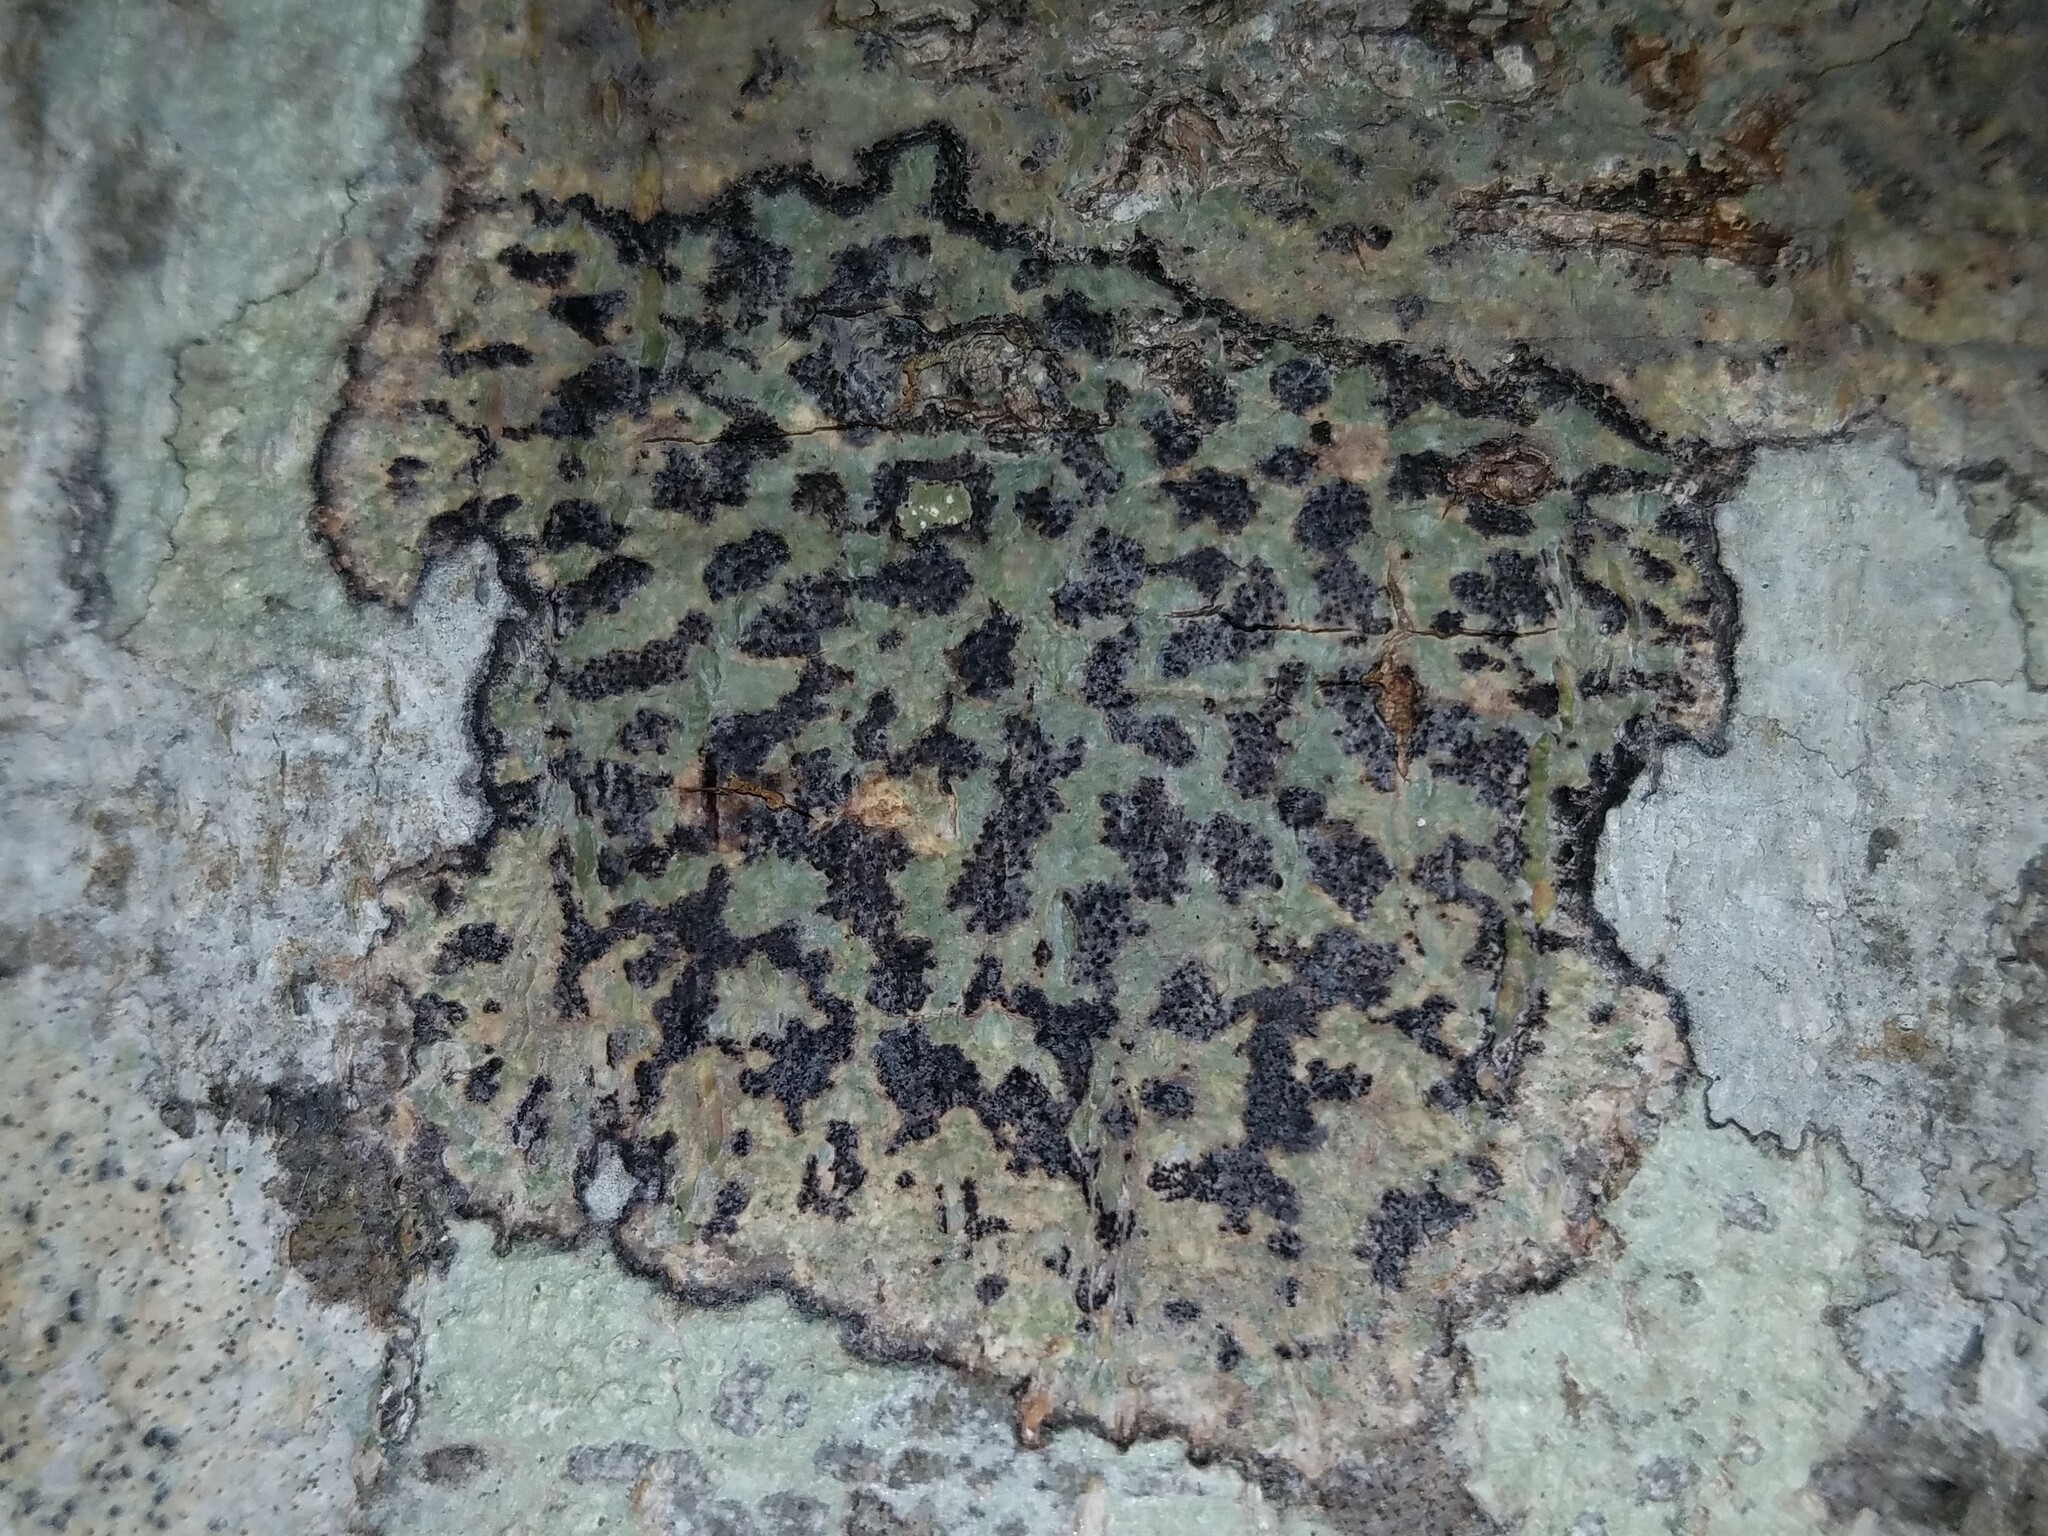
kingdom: Fungi
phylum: Ascomycota
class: Dothideomycetes
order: Trypetheliales
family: Trypetheliaceae
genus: Bathelium
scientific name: Bathelium carolinianum
